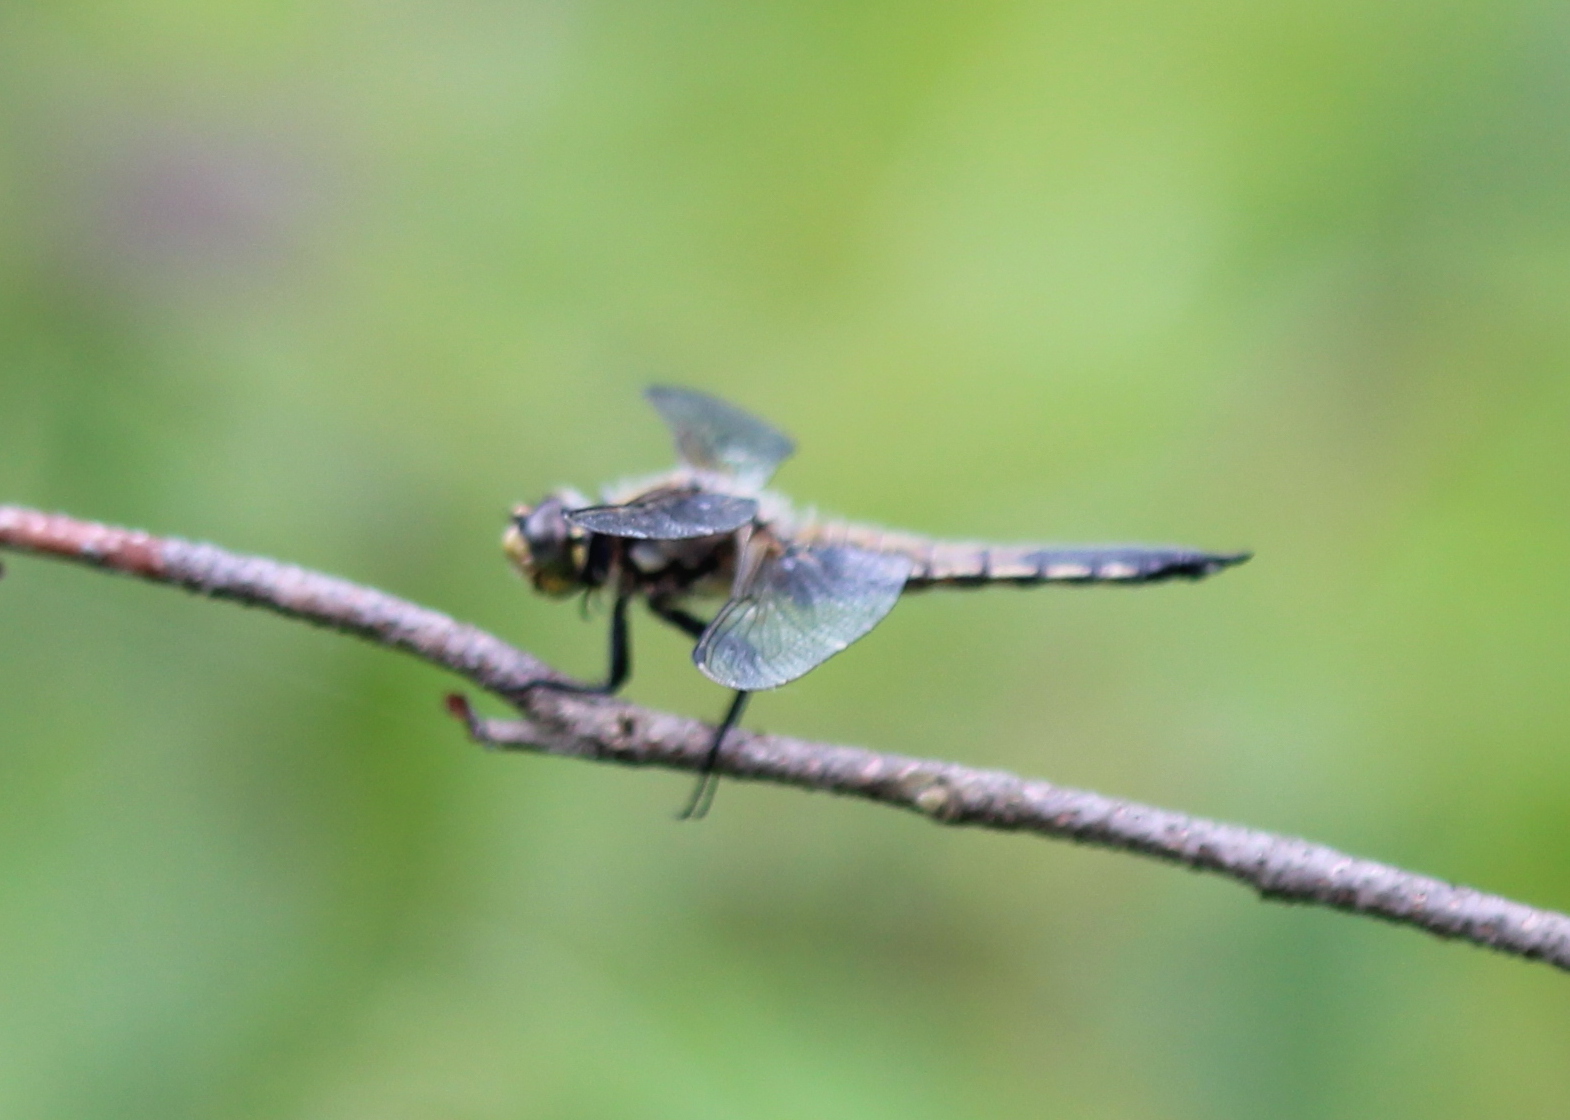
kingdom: Animalia
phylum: Arthropoda
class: Insecta
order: Odonata
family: Libellulidae
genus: Libellula
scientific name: Libellula quadrimaculata
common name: Four-spotted chaser
